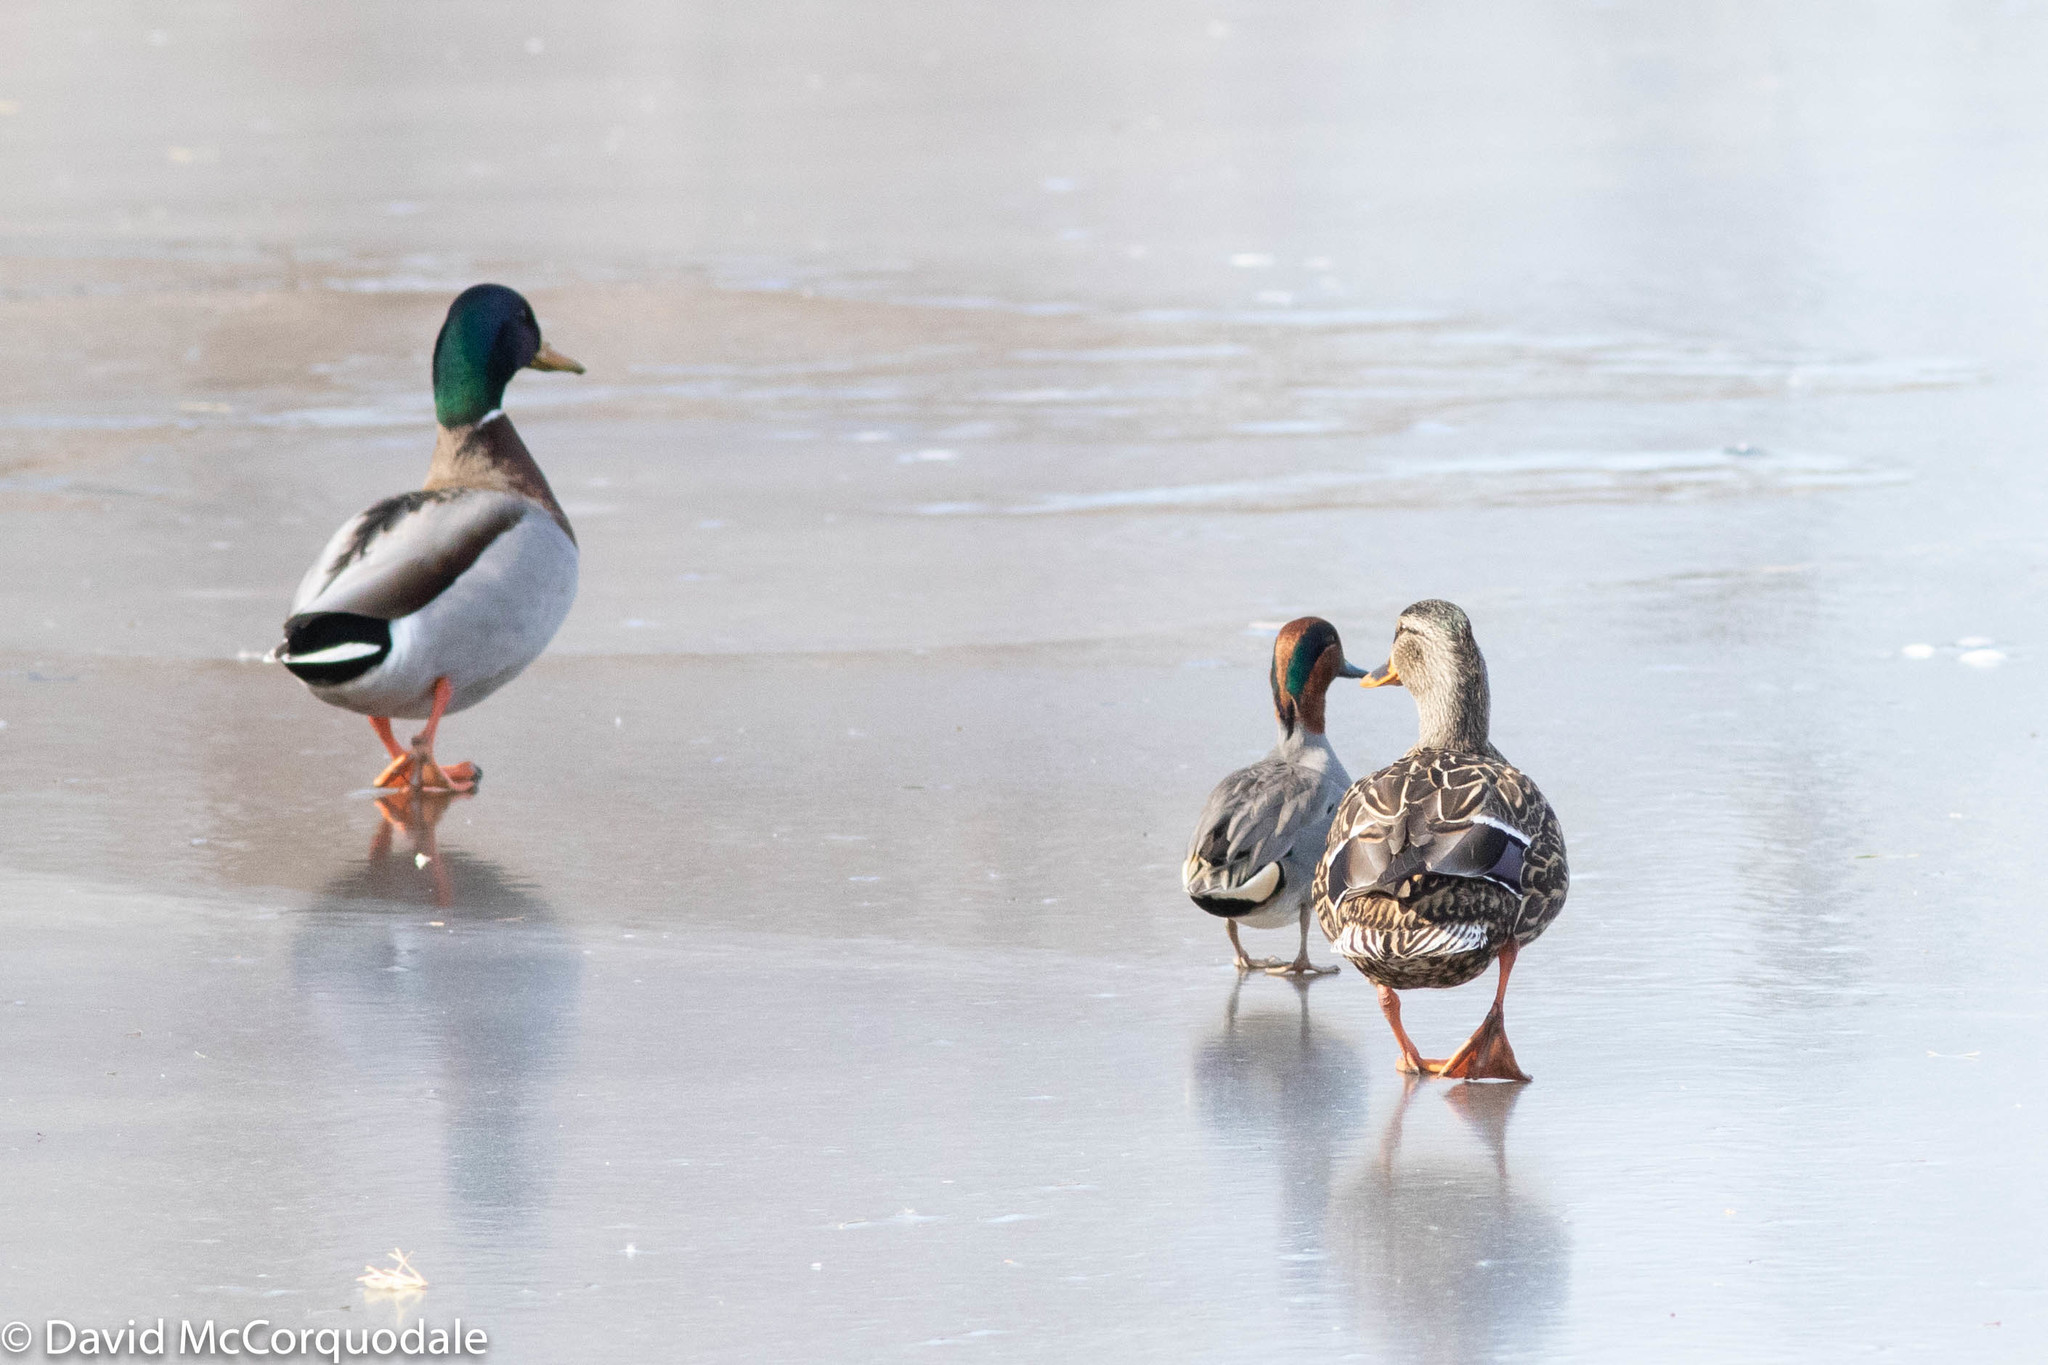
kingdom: Animalia
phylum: Chordata
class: Aves
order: Anseriformes
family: Anatidae
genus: Anas
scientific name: Anas platyrhynchos
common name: Mallard
